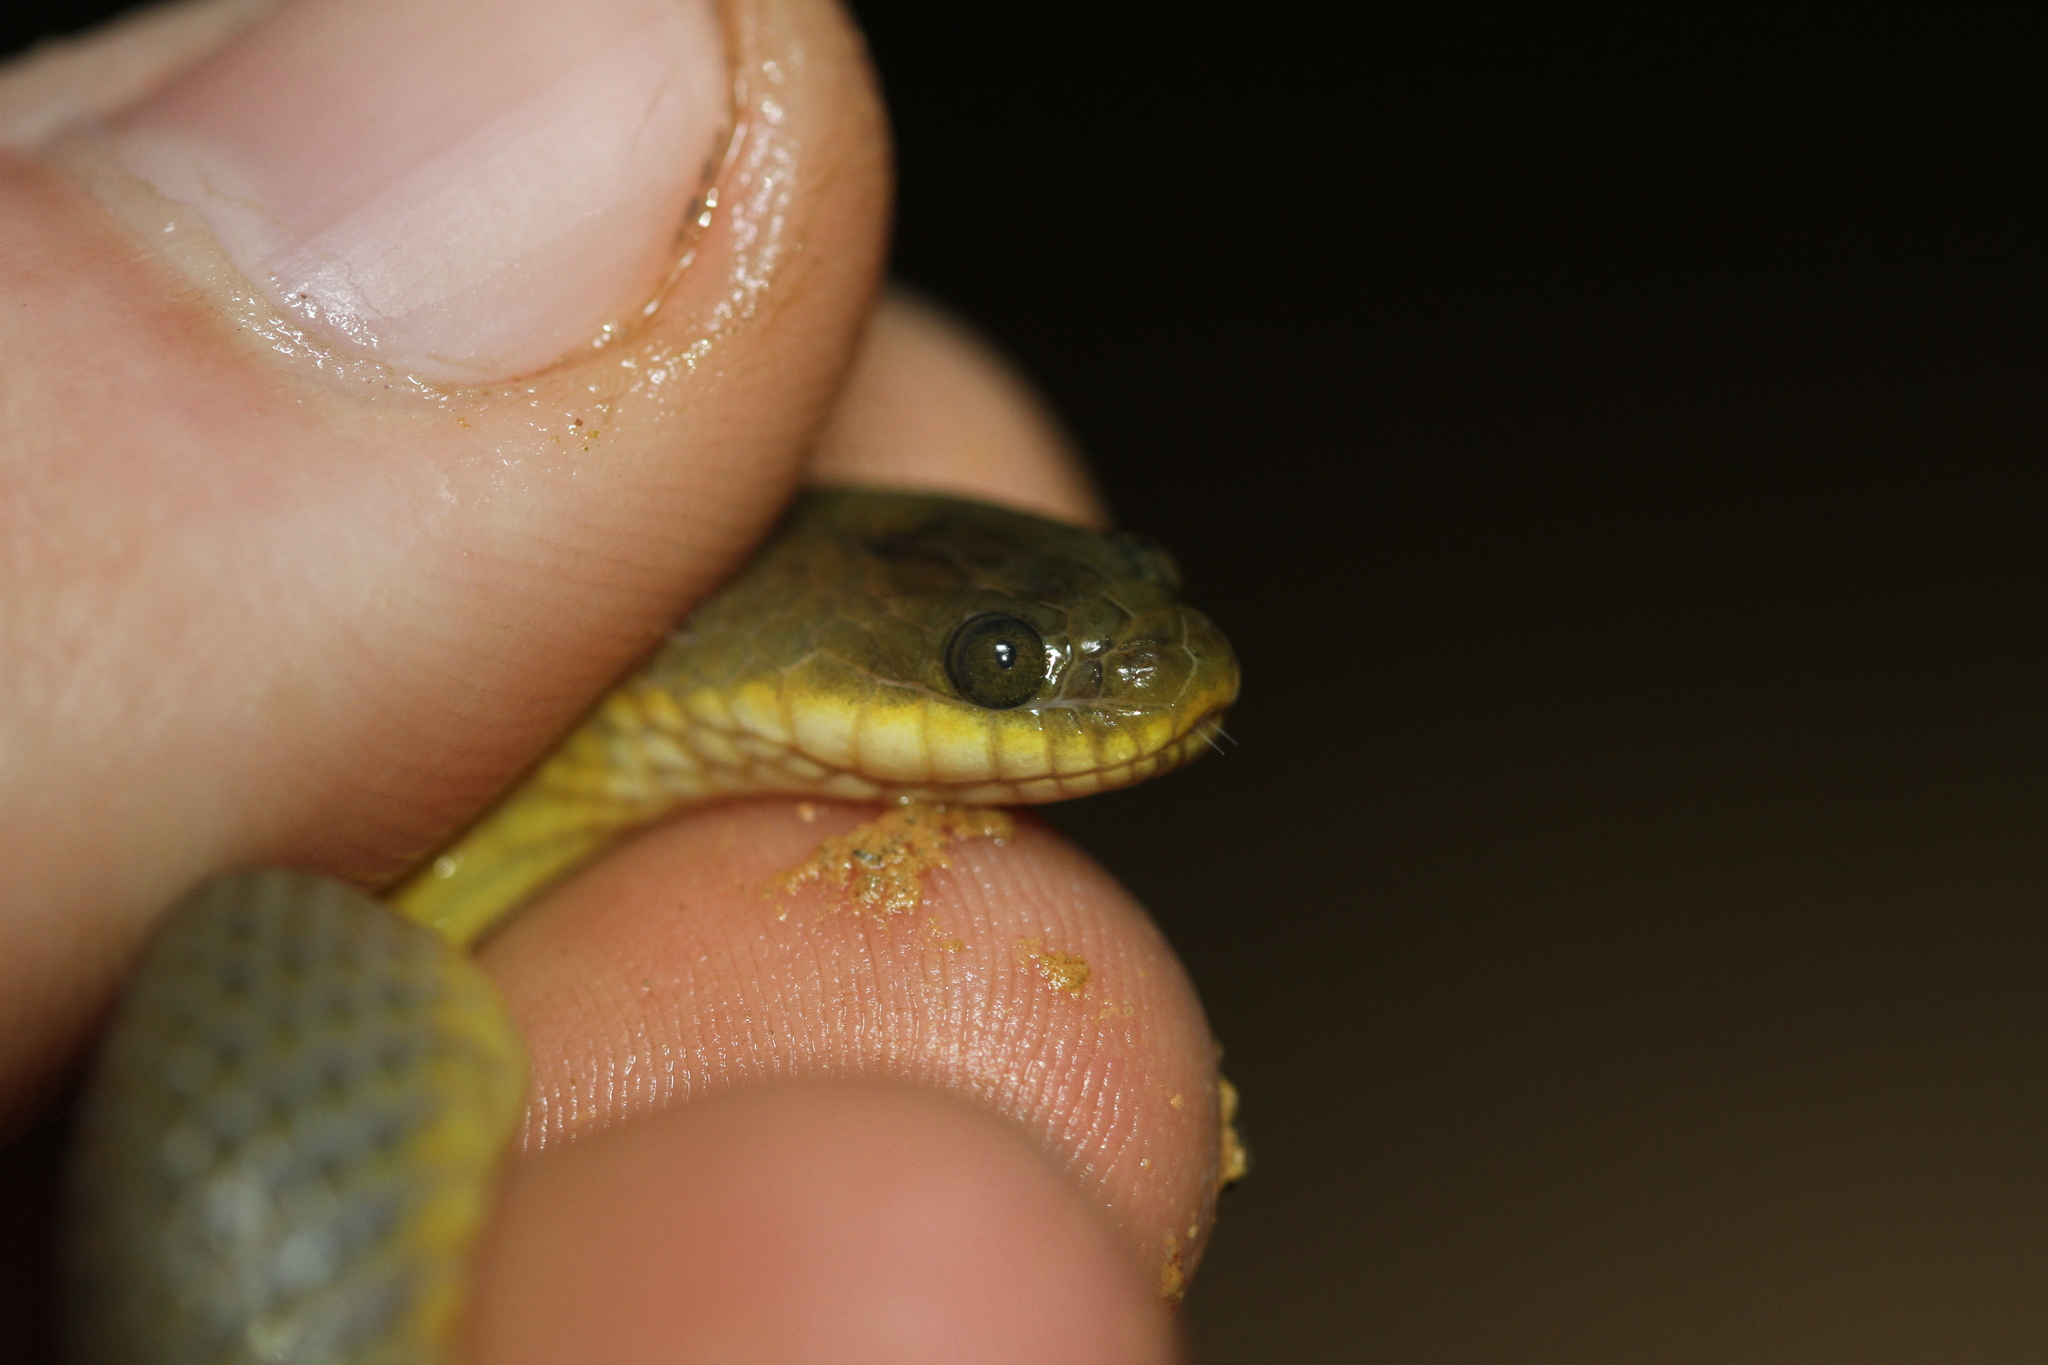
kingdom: Animalia
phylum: Chordata
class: Squamata
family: Homalopsidae
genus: Hypsiscopus
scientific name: Hypsiscopus plumbea
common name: Rice paddy snake
